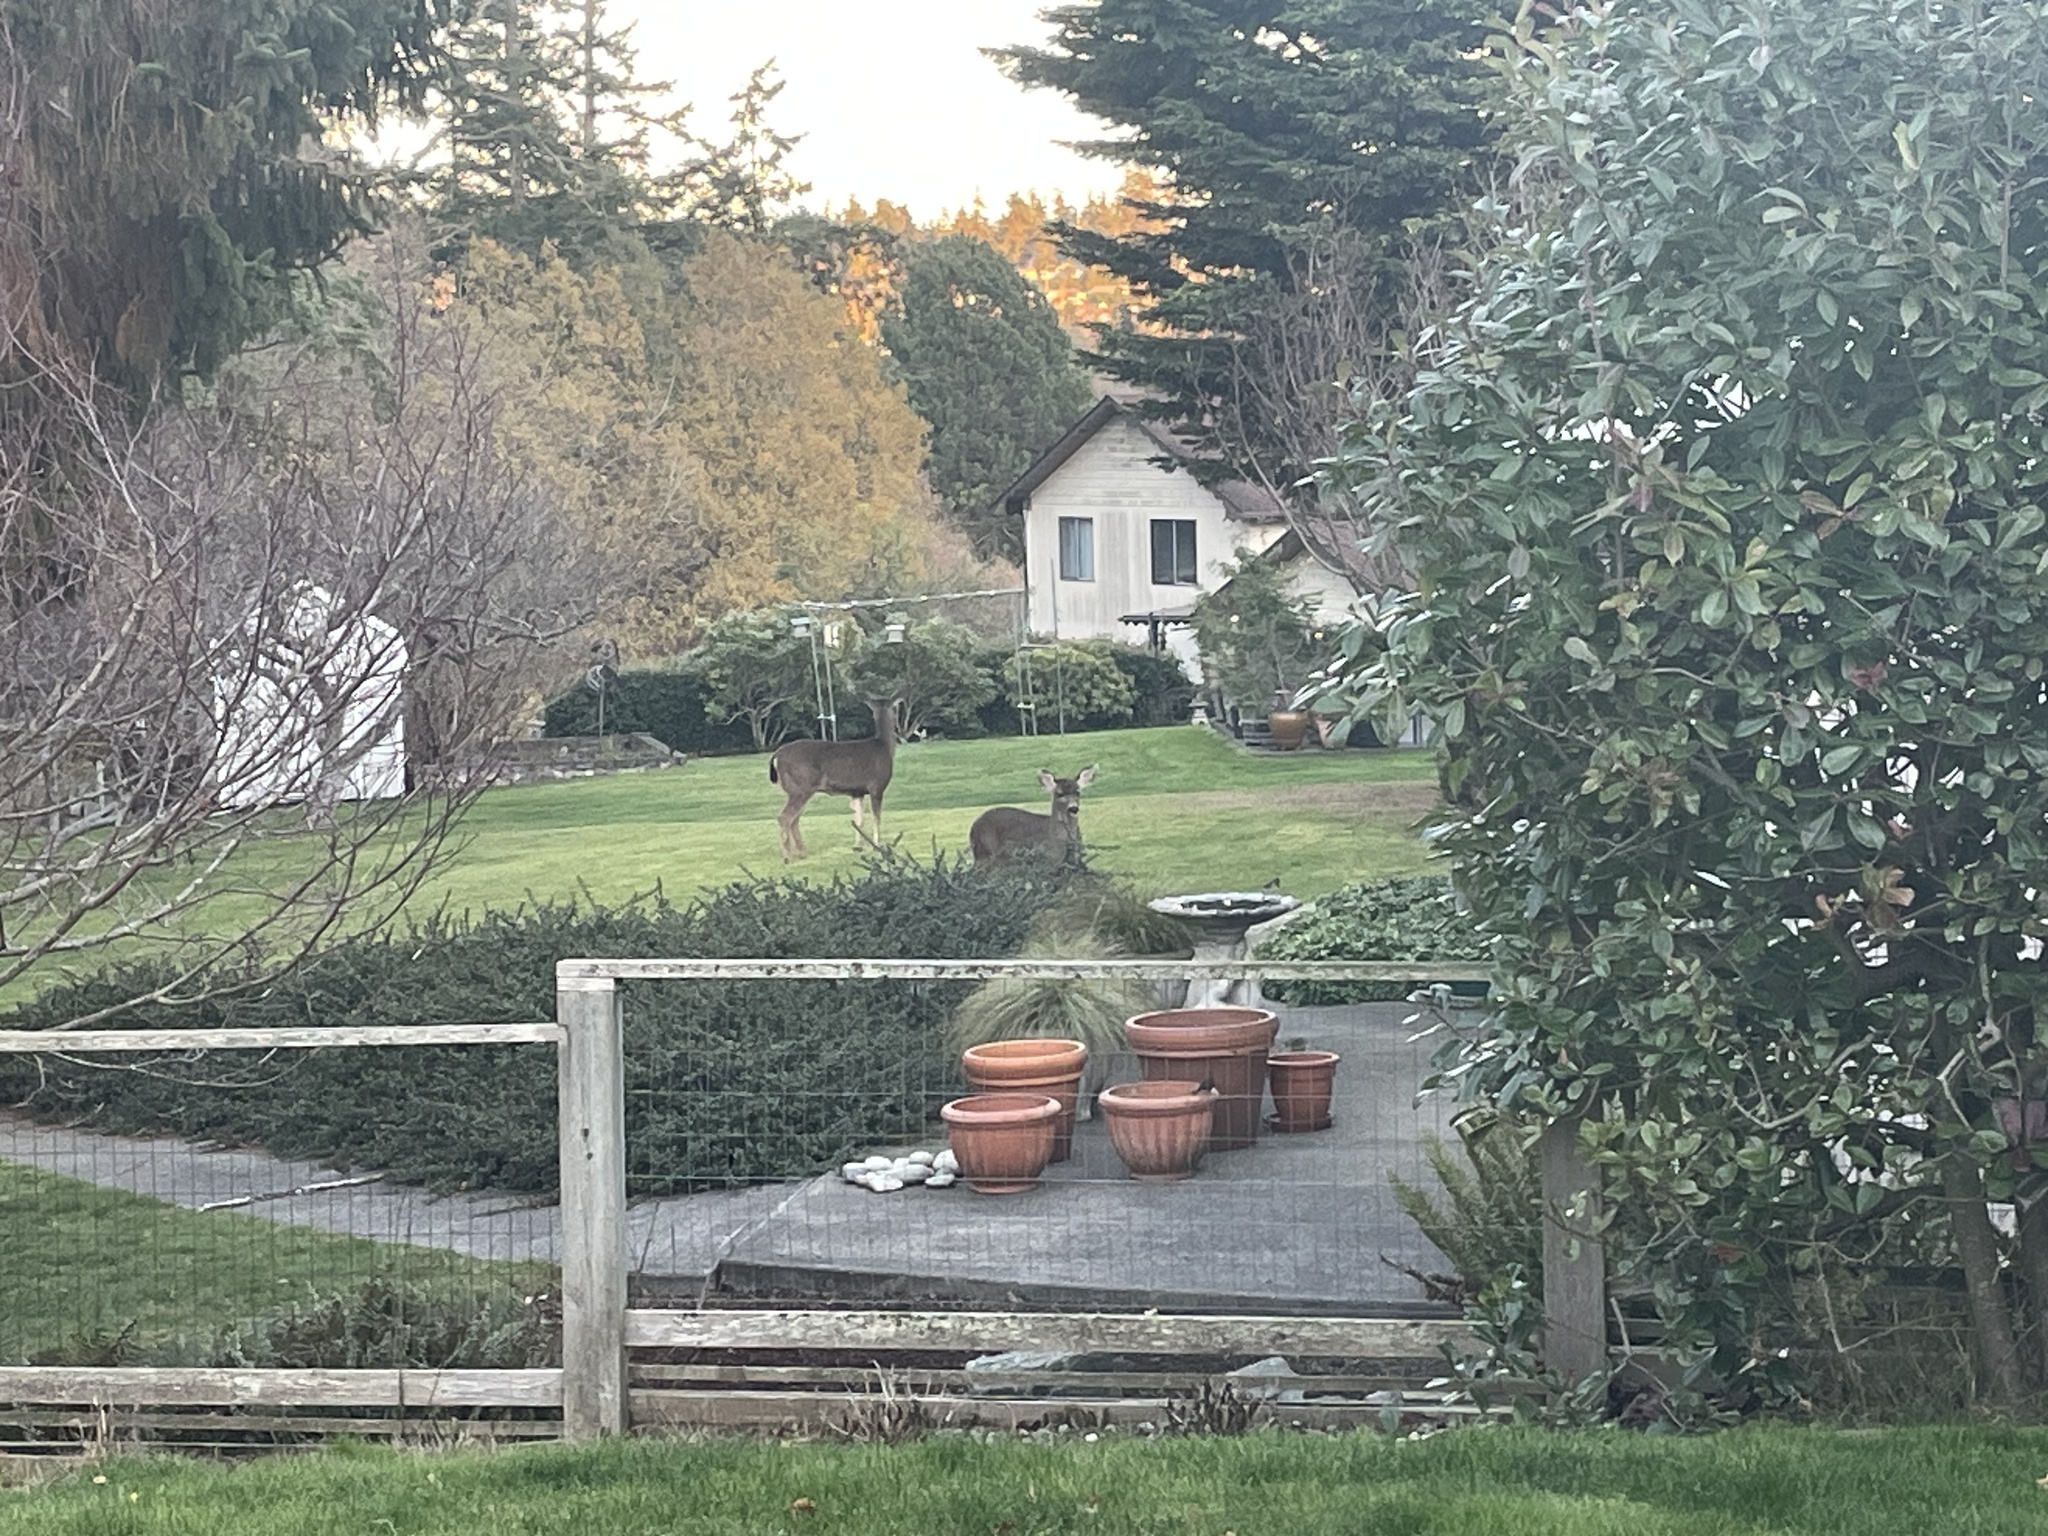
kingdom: Animalia
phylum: Chordata
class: Mammalia
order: Artiodactyla
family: Cervidae
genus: Odocoileus
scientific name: Odocoileus hemionus
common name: Mule deer
